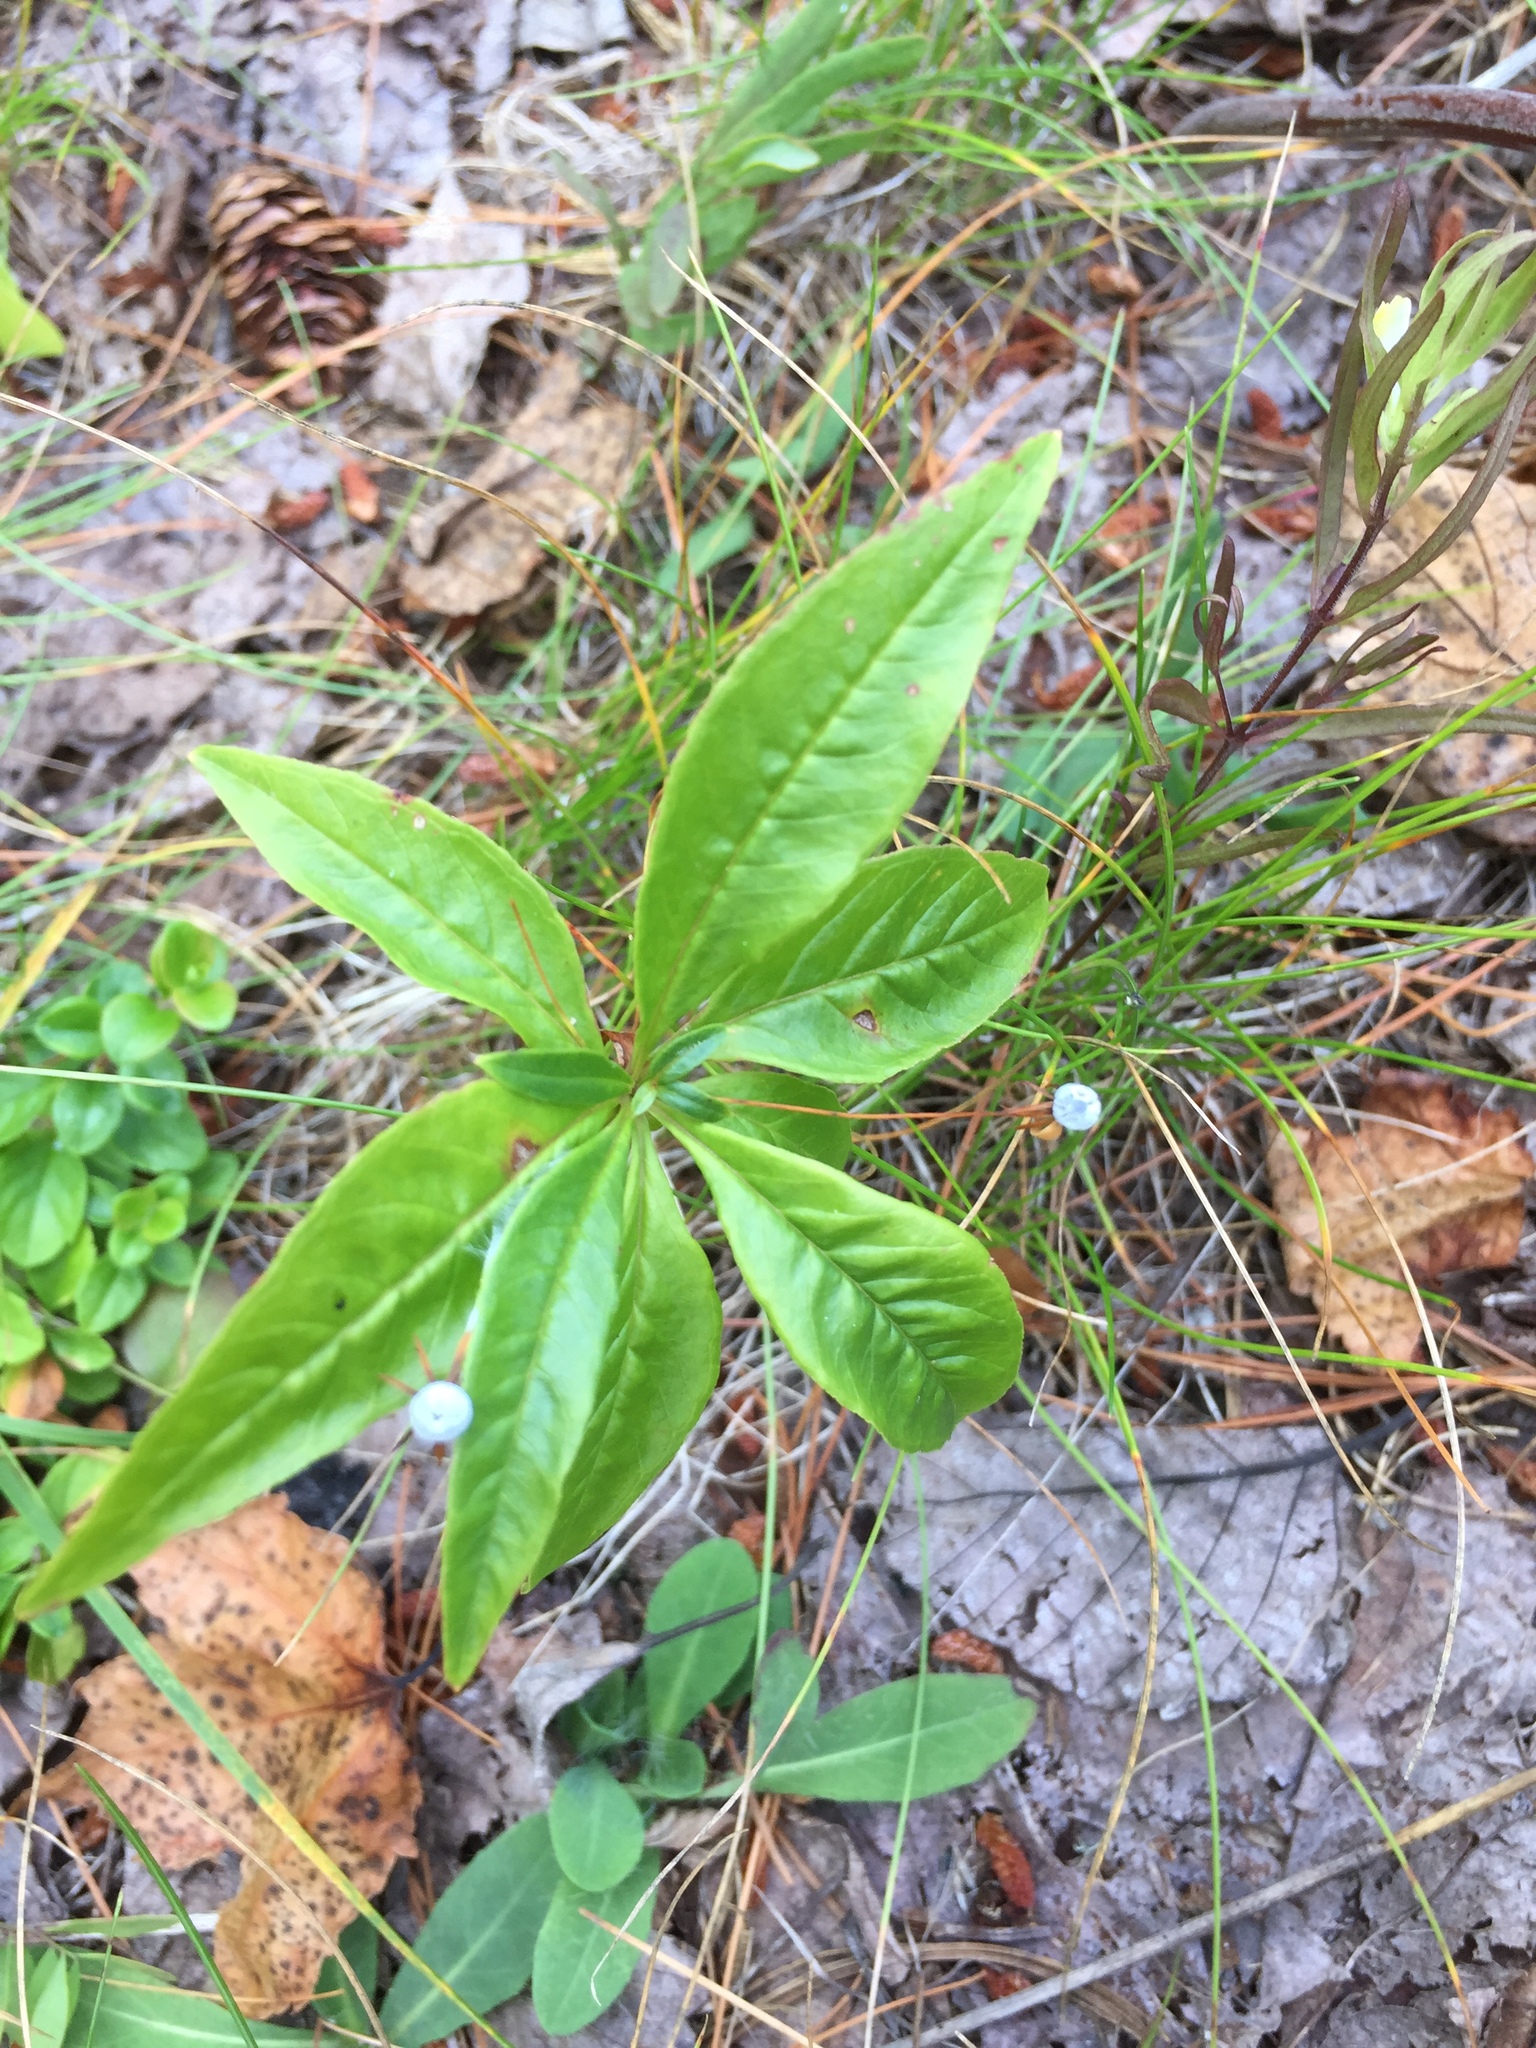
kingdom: Plantae
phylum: Tracheophyta
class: Magnoliopsida
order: Ericales
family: Primulaceae
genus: Lysimachia
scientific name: Lysimachia borealis
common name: American starflower
